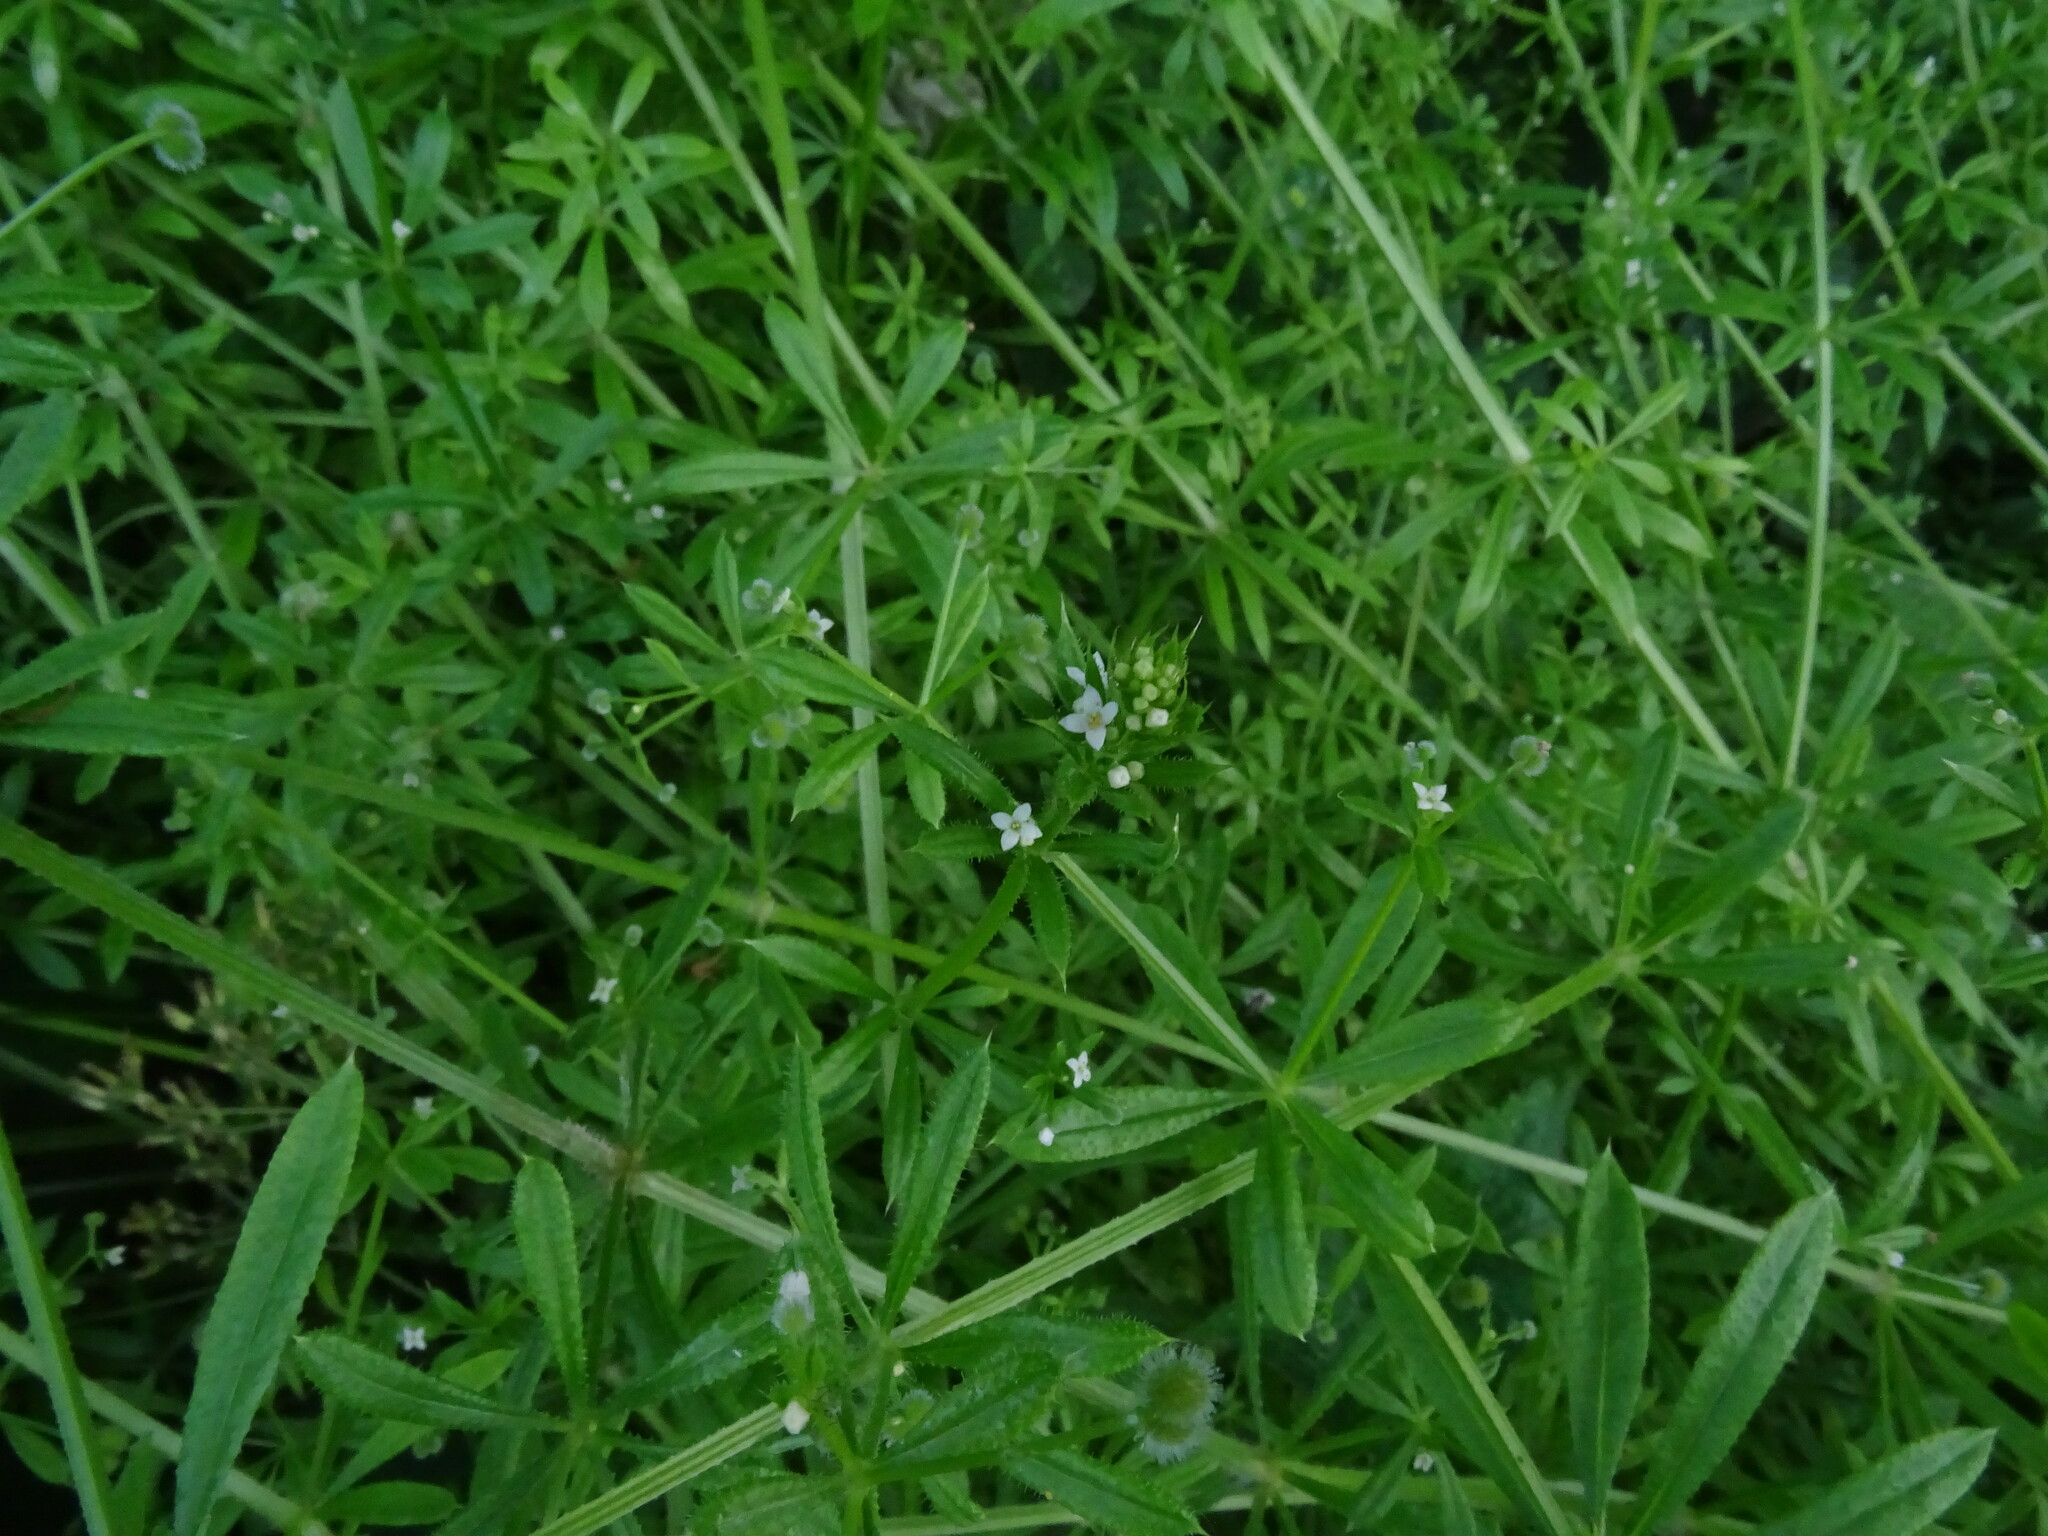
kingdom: Plantae
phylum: Tracheophyta
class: Magnoliopsida
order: Gentianales
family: Rubiaceae
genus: Galium
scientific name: Galium aparine
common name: Cleavers
